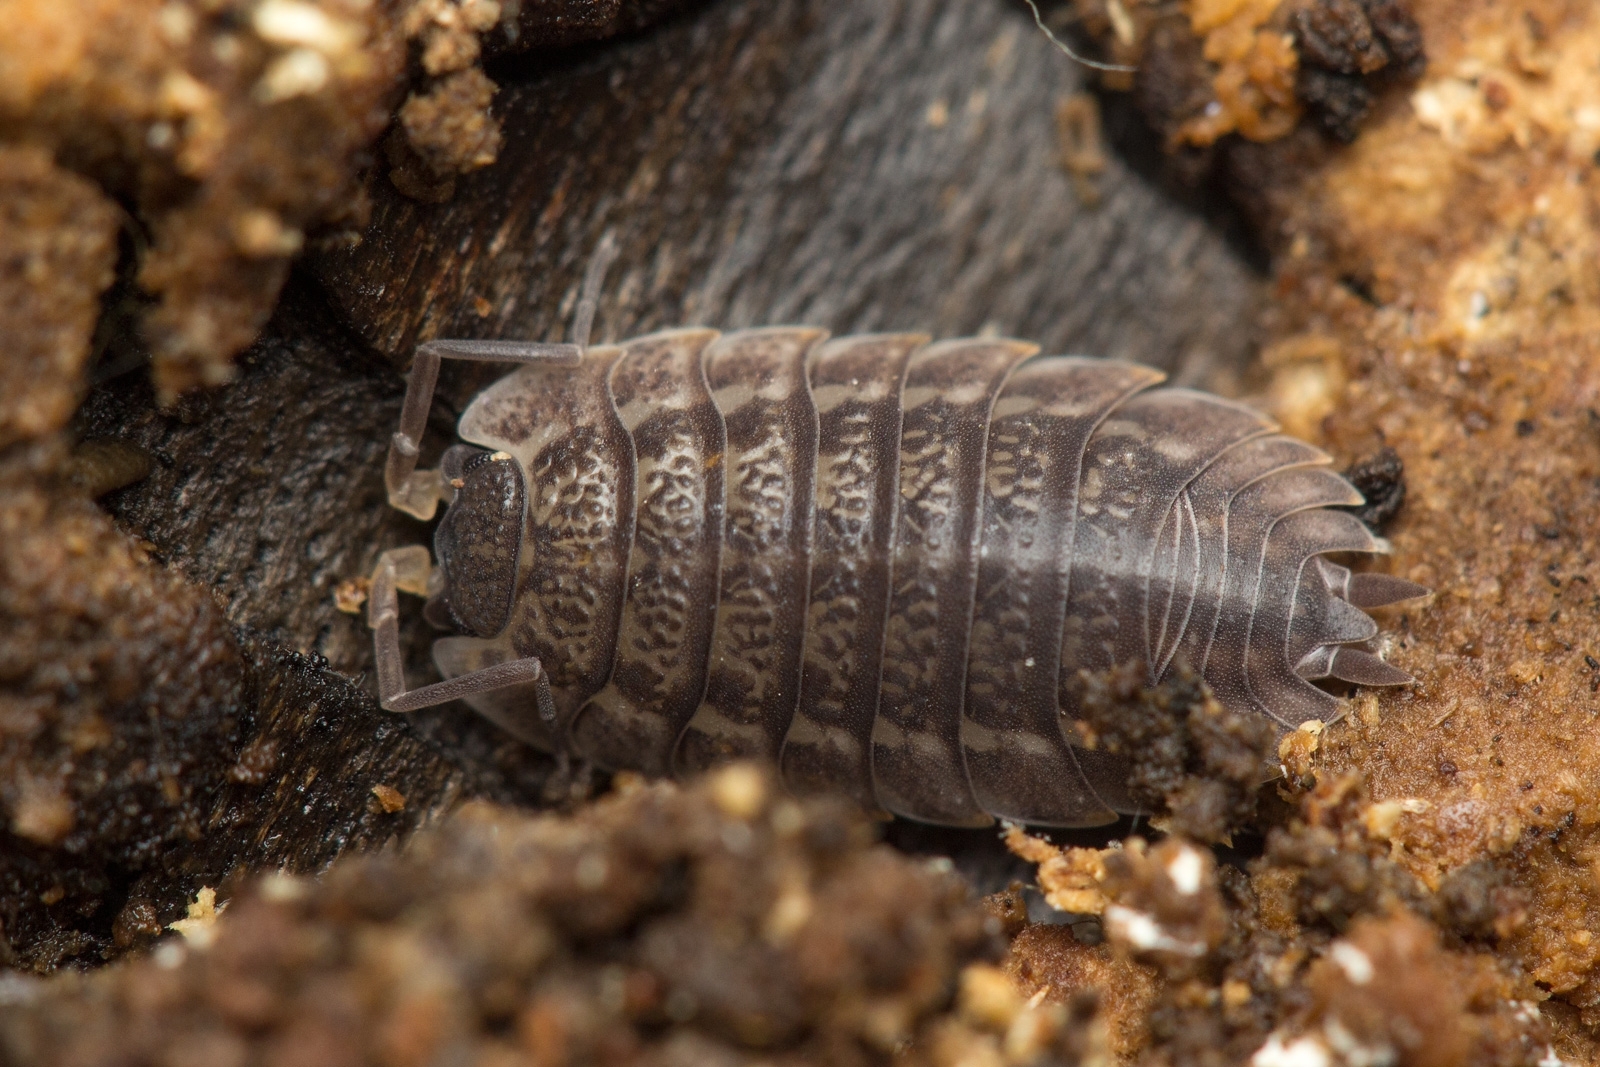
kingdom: Animalia
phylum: Arthropoda
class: Malacostraca
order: Isopoda
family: Trachelipodidae
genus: Trachelipus
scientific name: Trachelipus rathkii
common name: Isopod
